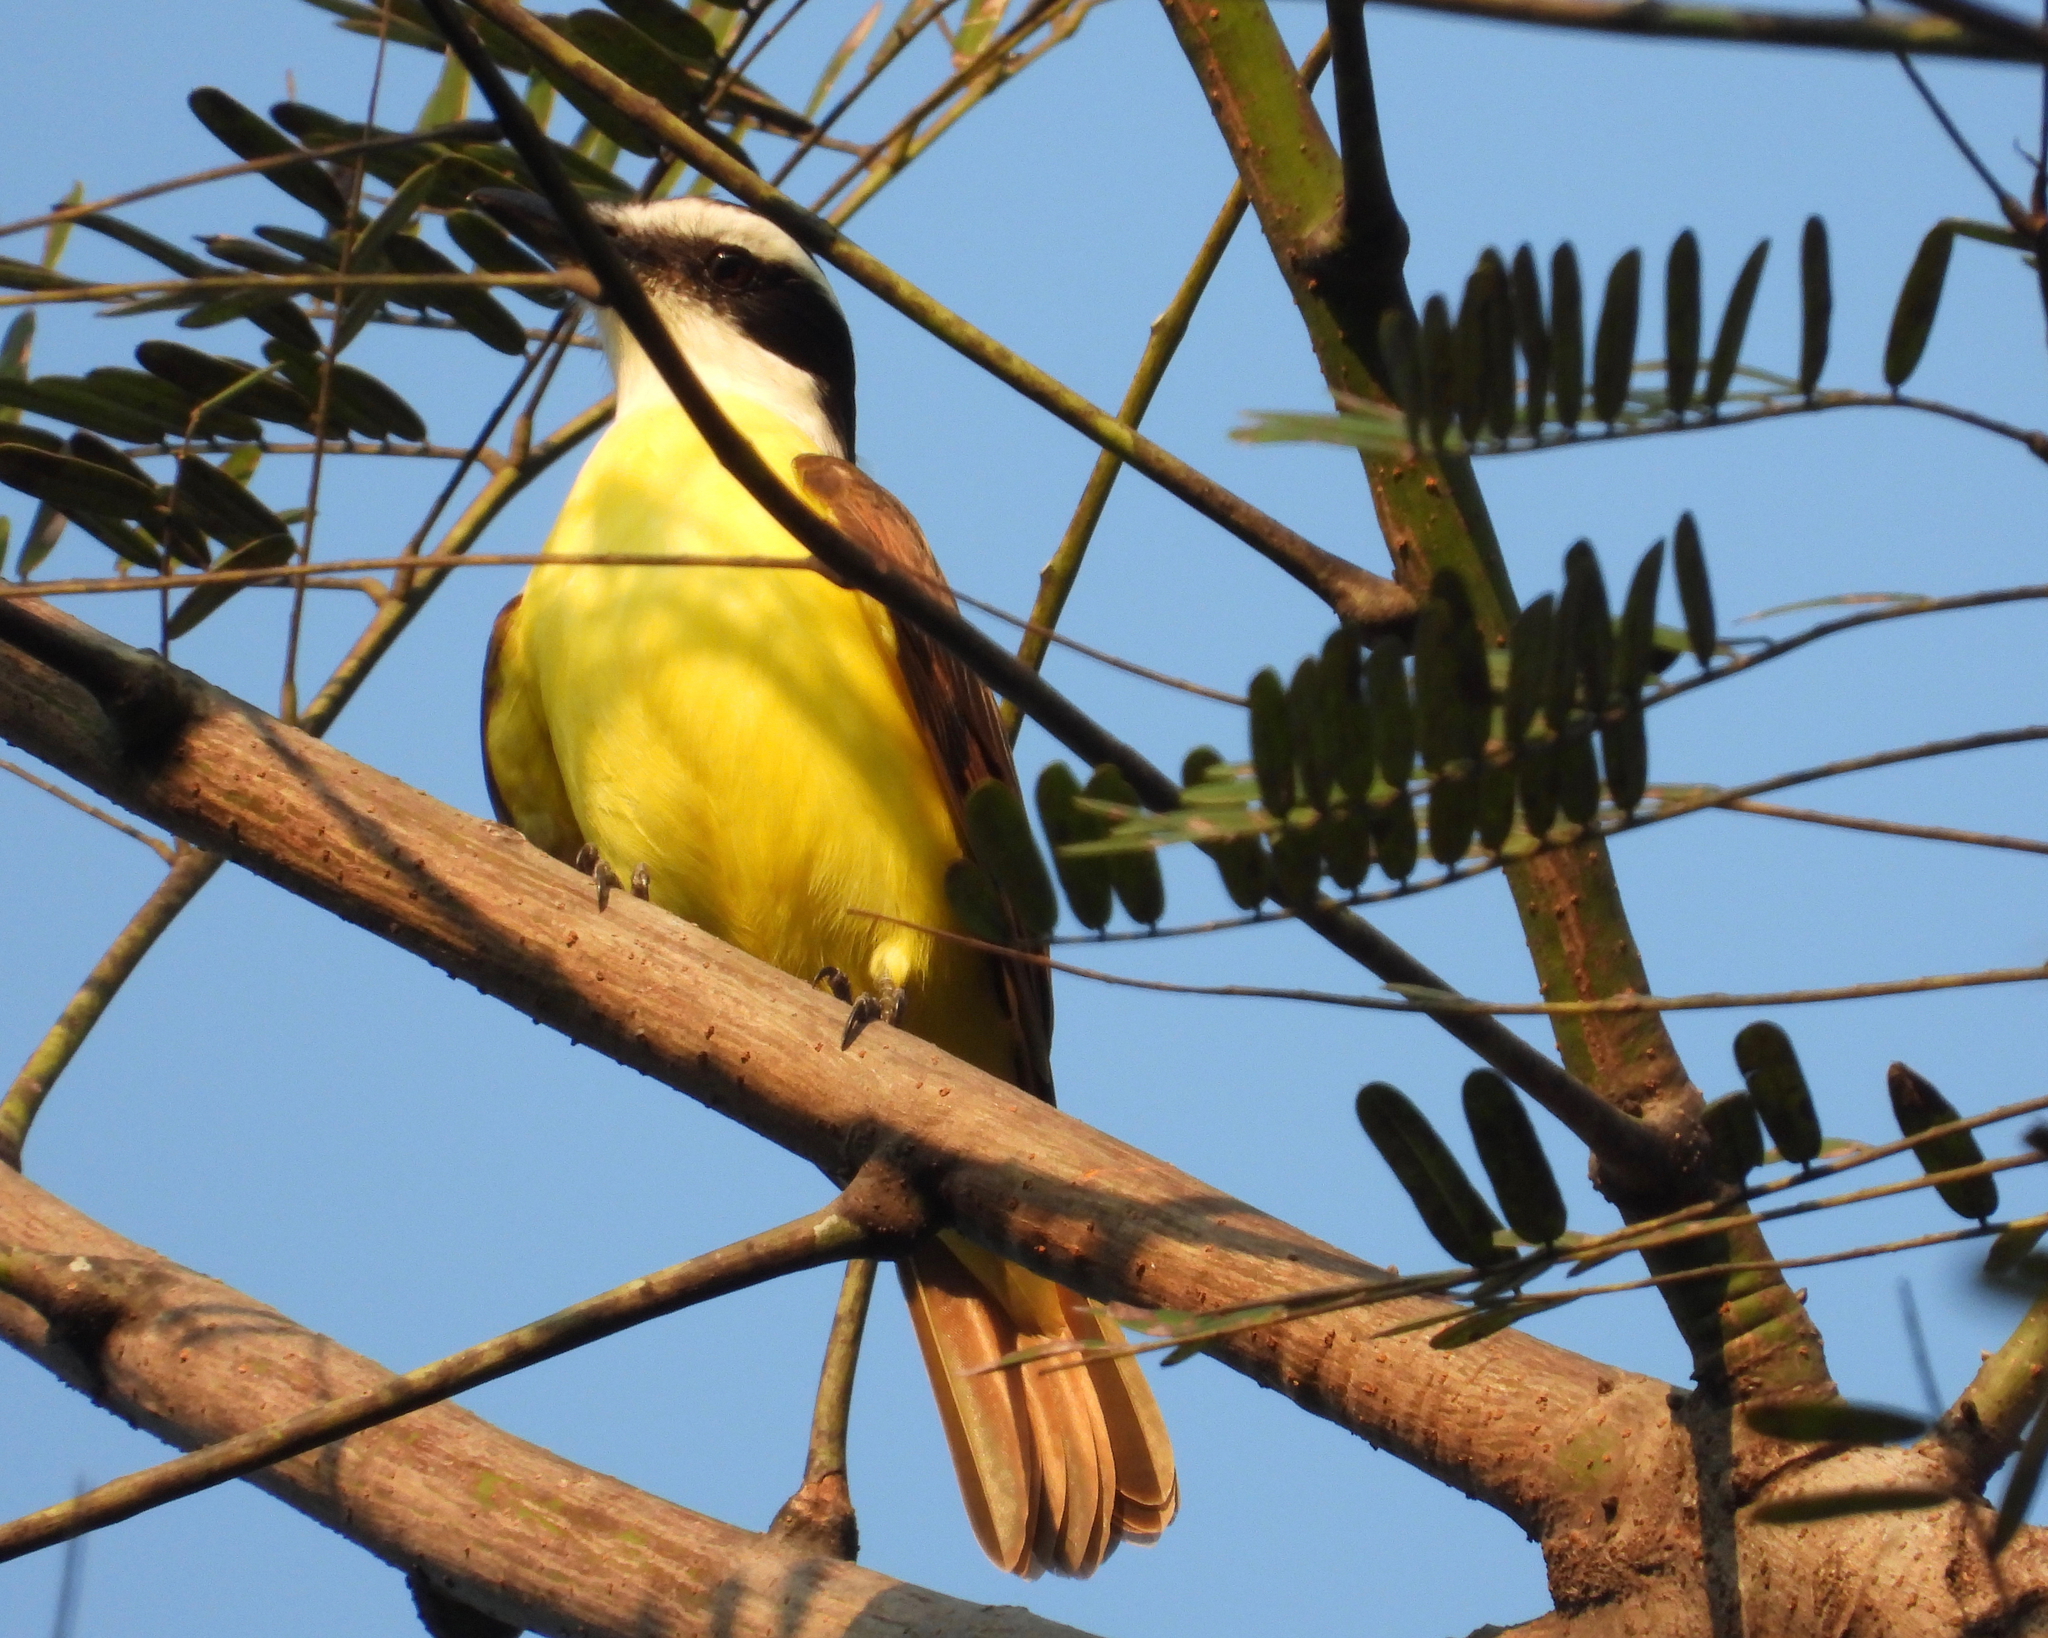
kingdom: Animalia
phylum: Chordata
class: Aves
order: Passeriformes
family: Tyrannidae
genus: Pitangus
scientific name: Pitangus sulphuratus
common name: Great kiskadee
